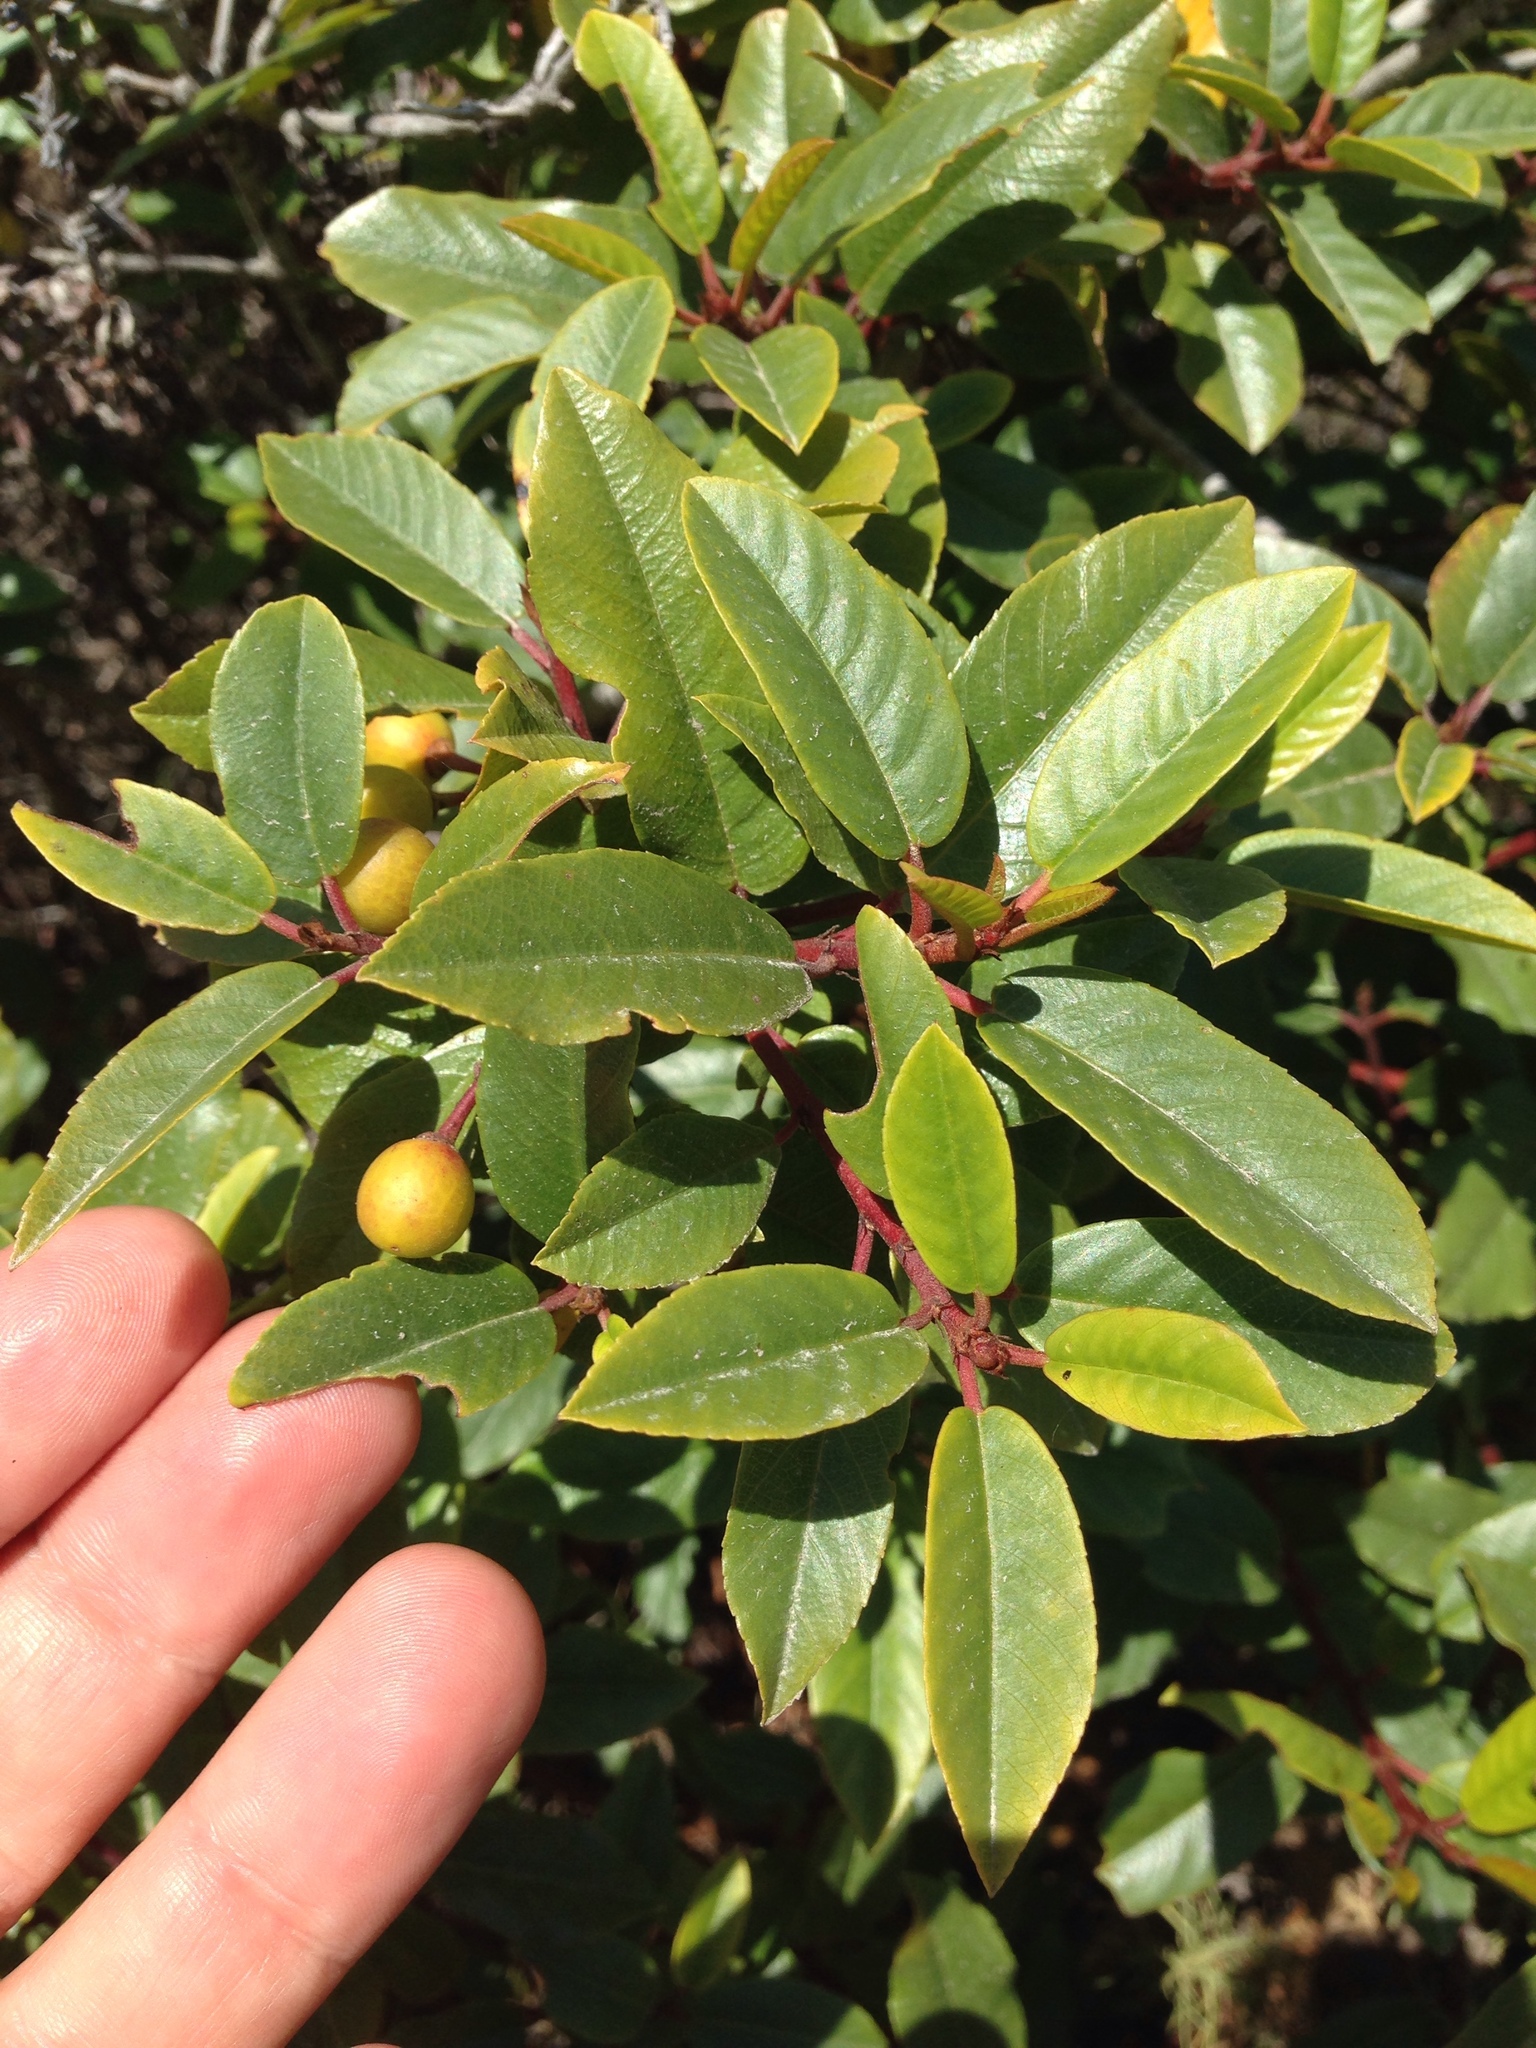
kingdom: Plantae
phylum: Tracheophyta
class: Magnoliopsida
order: Rosales
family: Rhamnaceae
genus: Frangula
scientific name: Frangula californica
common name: California buckthorn
